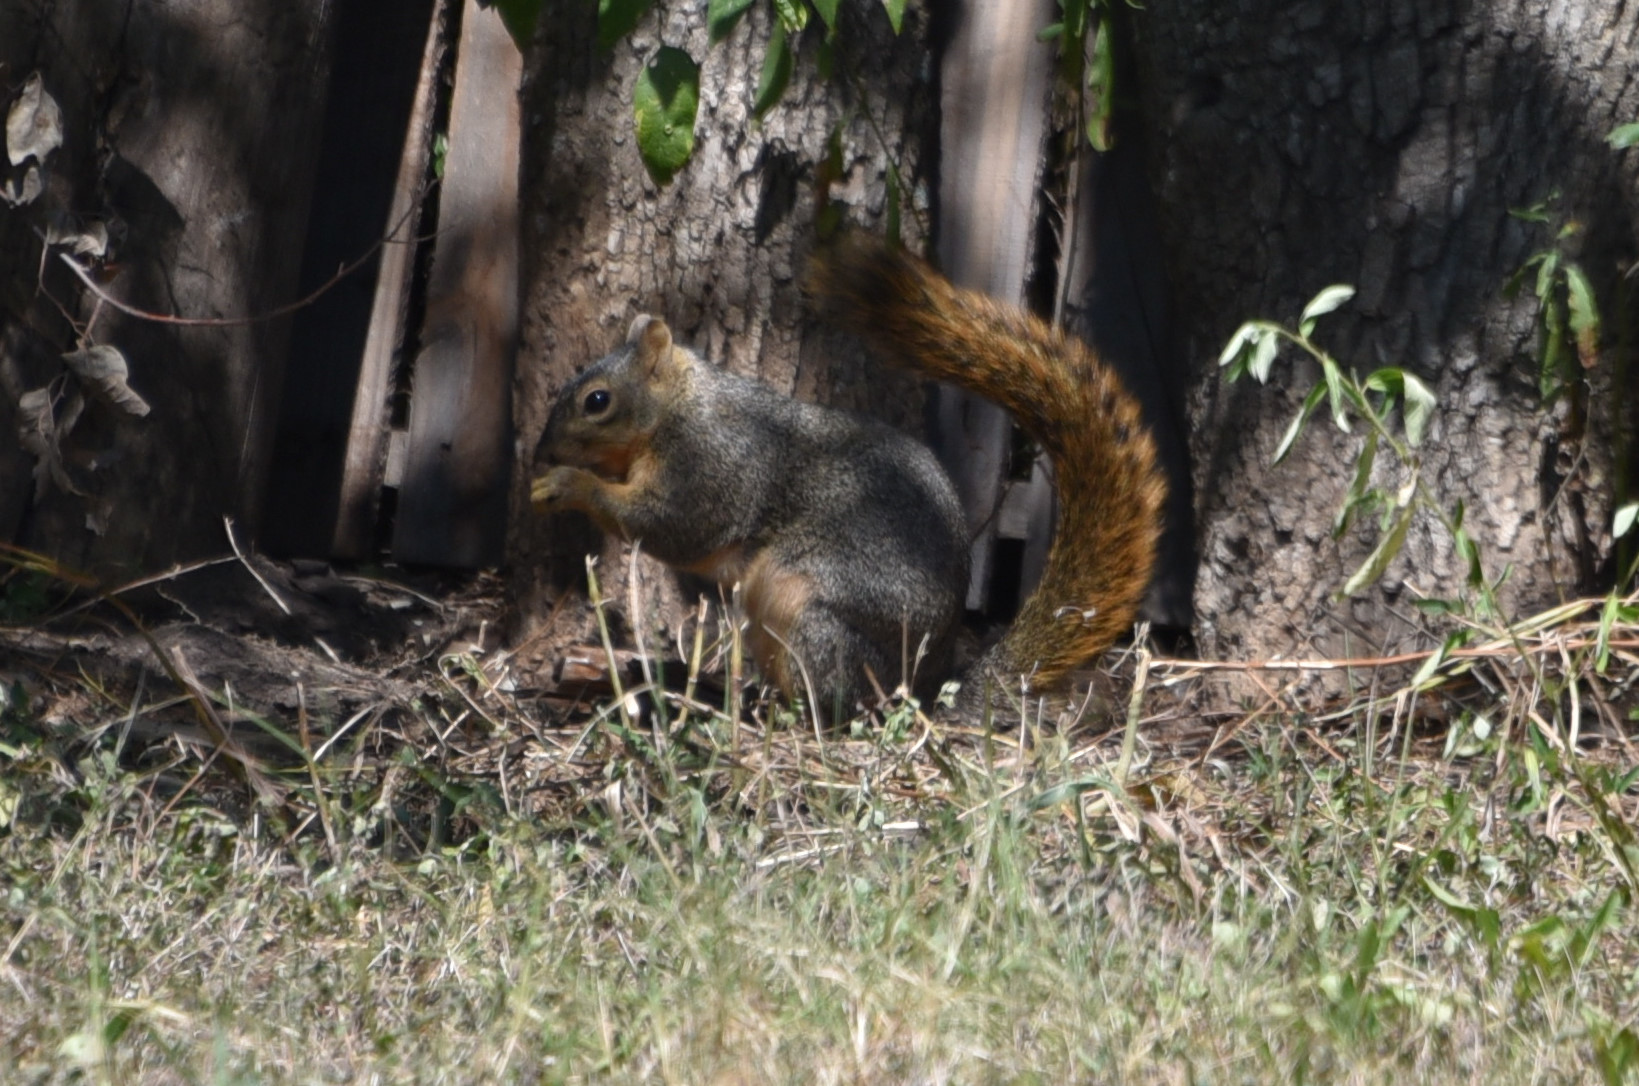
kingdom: Animalia
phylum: Chordata
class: Mammalia
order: Rodentia
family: Sciuridae
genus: Sciurus
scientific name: Sciurus niger
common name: Fox squirrel
